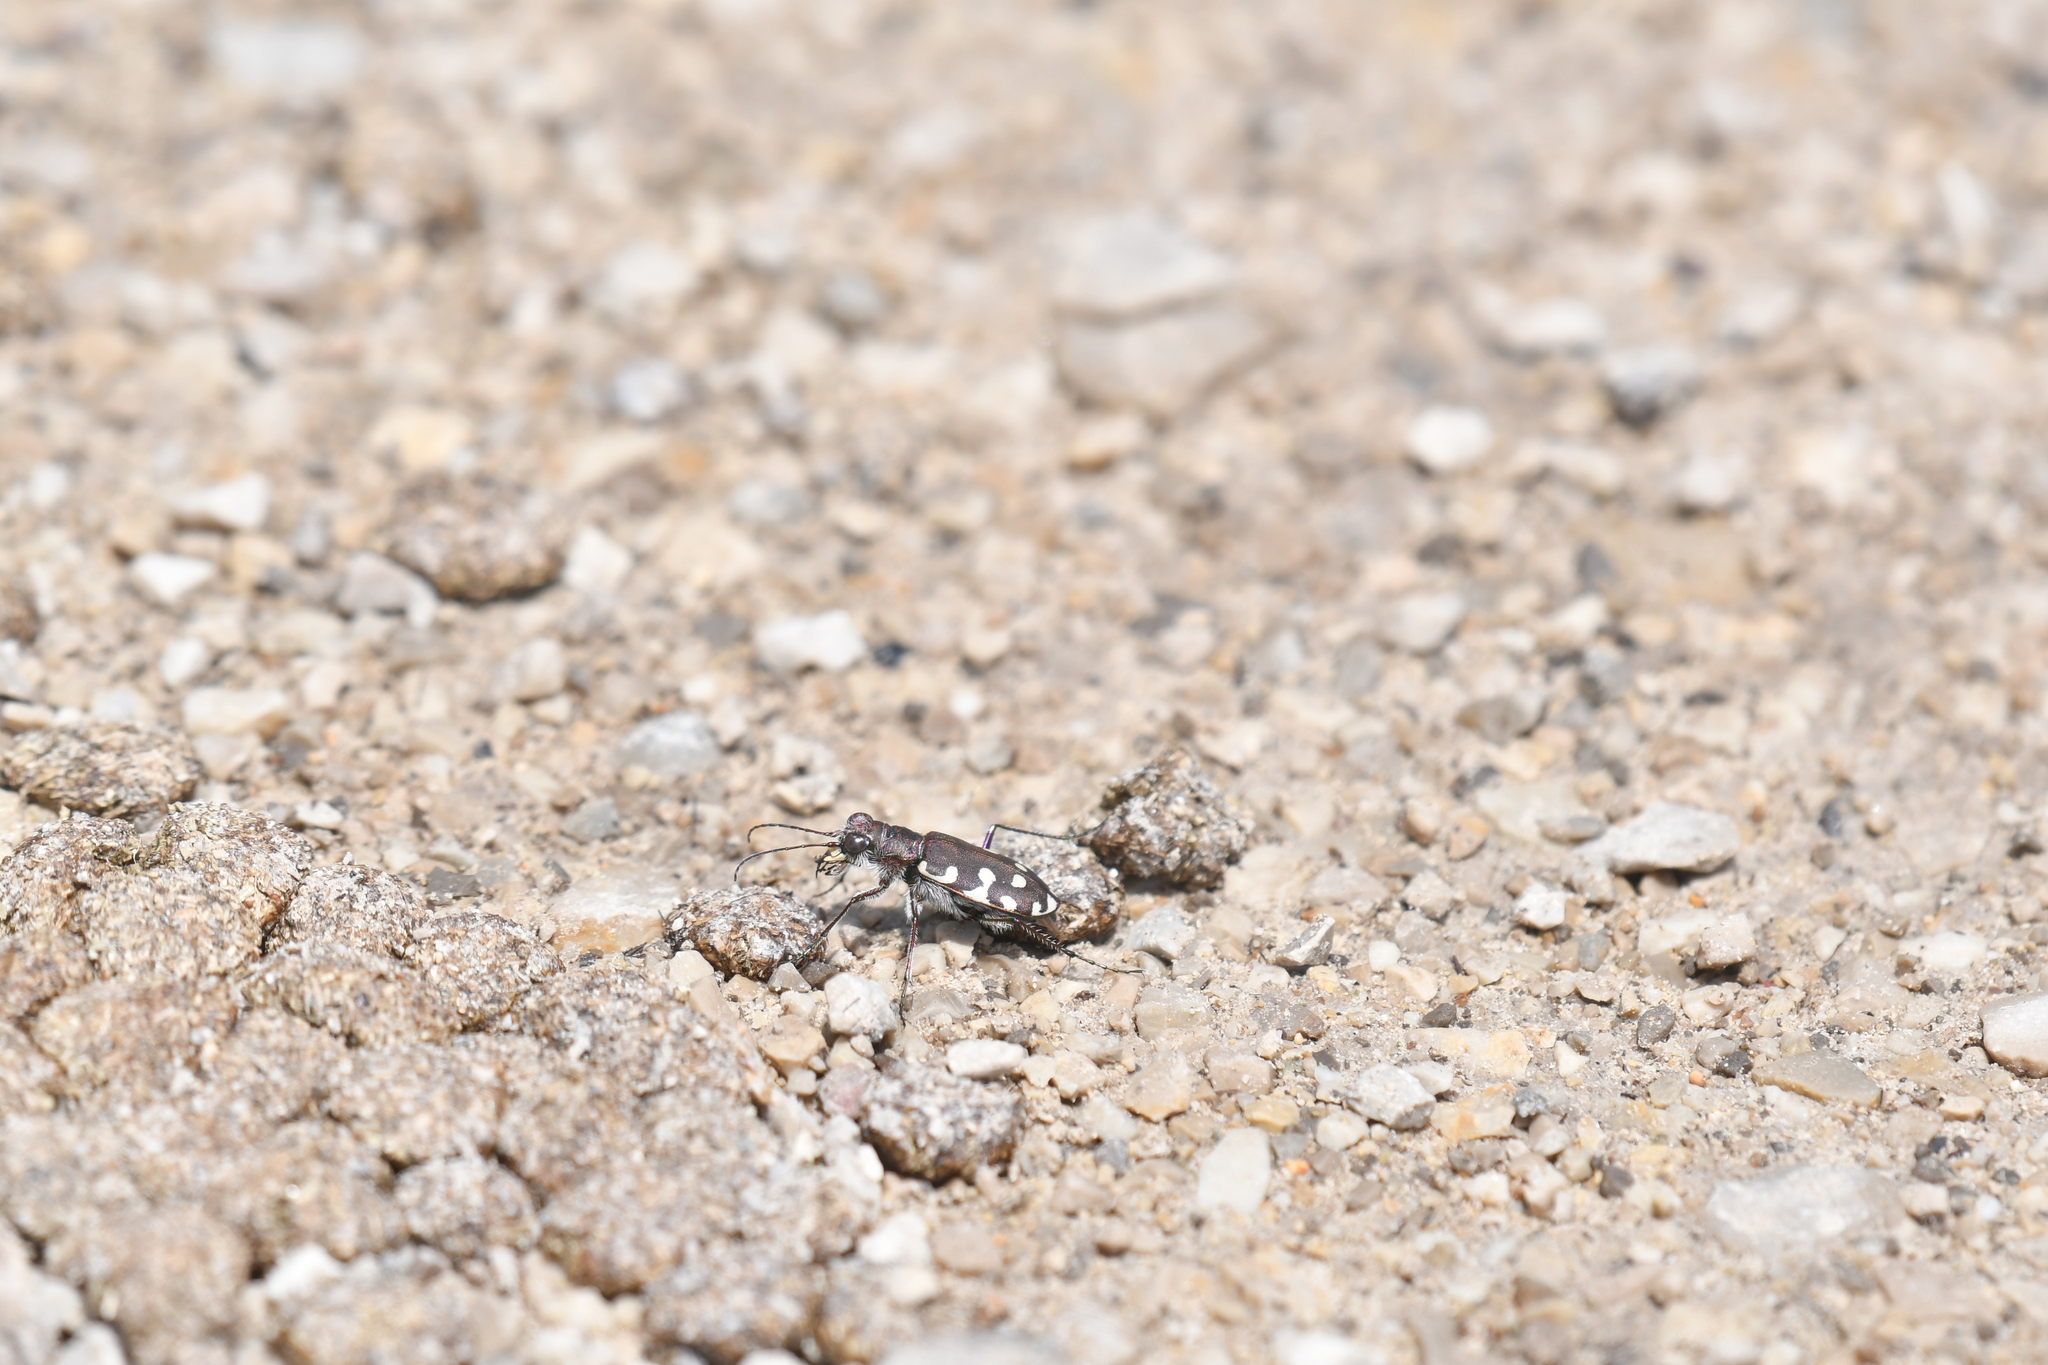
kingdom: Animalia
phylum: Arthropoda
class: Insecta
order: Coleoptera
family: Carabidae
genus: Cicindela
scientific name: Cicindela littoralis
